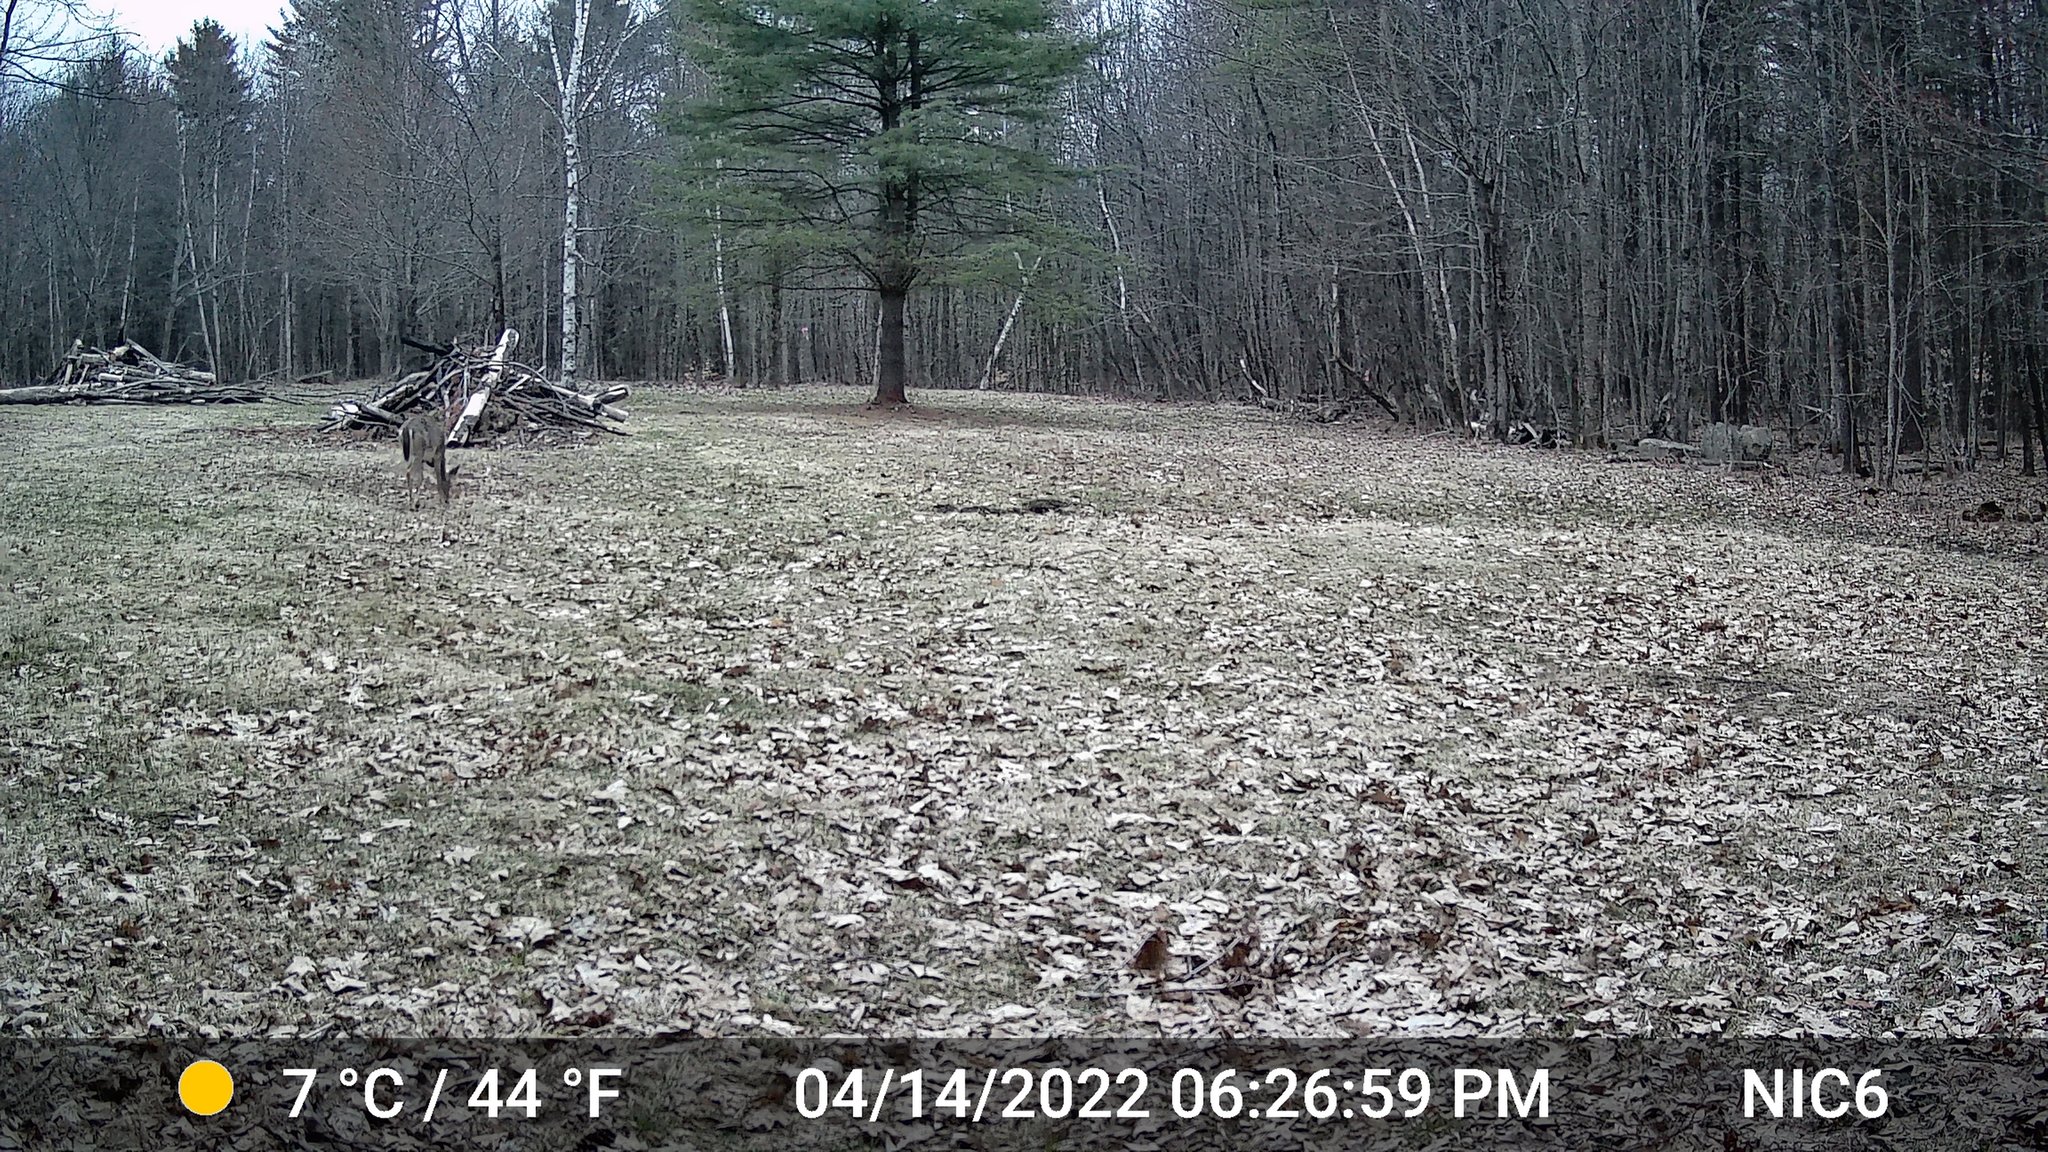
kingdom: Animalia
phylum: Chordata
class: Mammalia
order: Artiodactyla
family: Cervidae
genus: Odocoileus
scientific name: Odocoileus virginianus
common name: White-tailed deer
